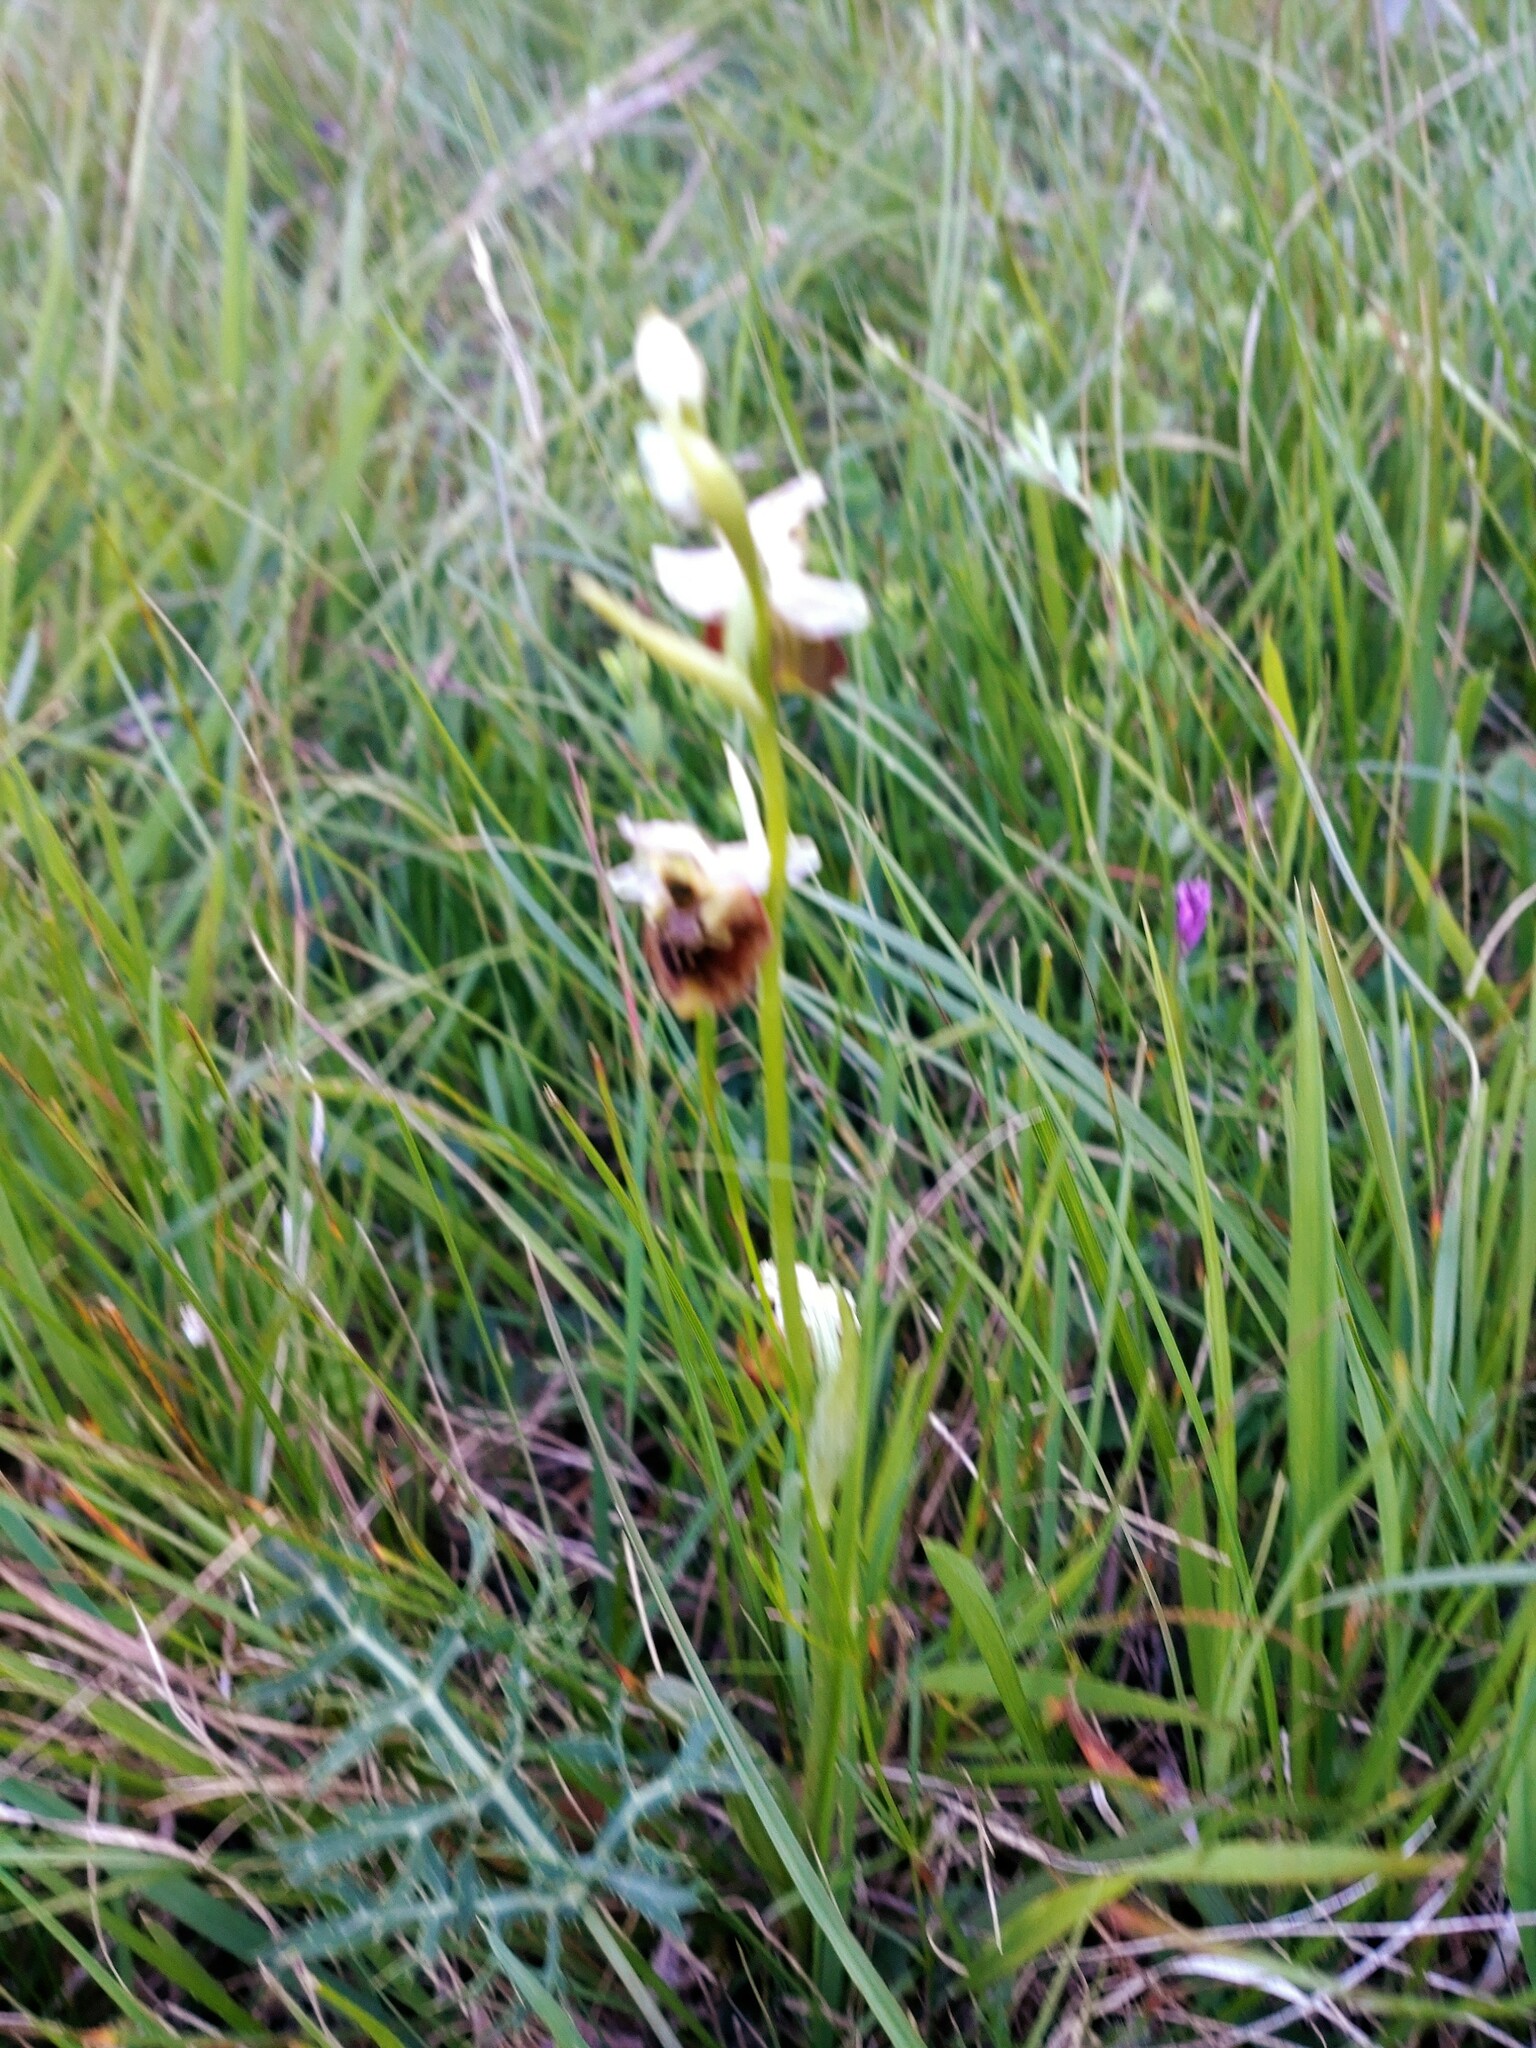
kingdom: Plantae
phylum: Tracheophyta
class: Liliopsida
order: Asparagales
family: Orchidaceae
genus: Ophrys
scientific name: Ophrys holosericea
